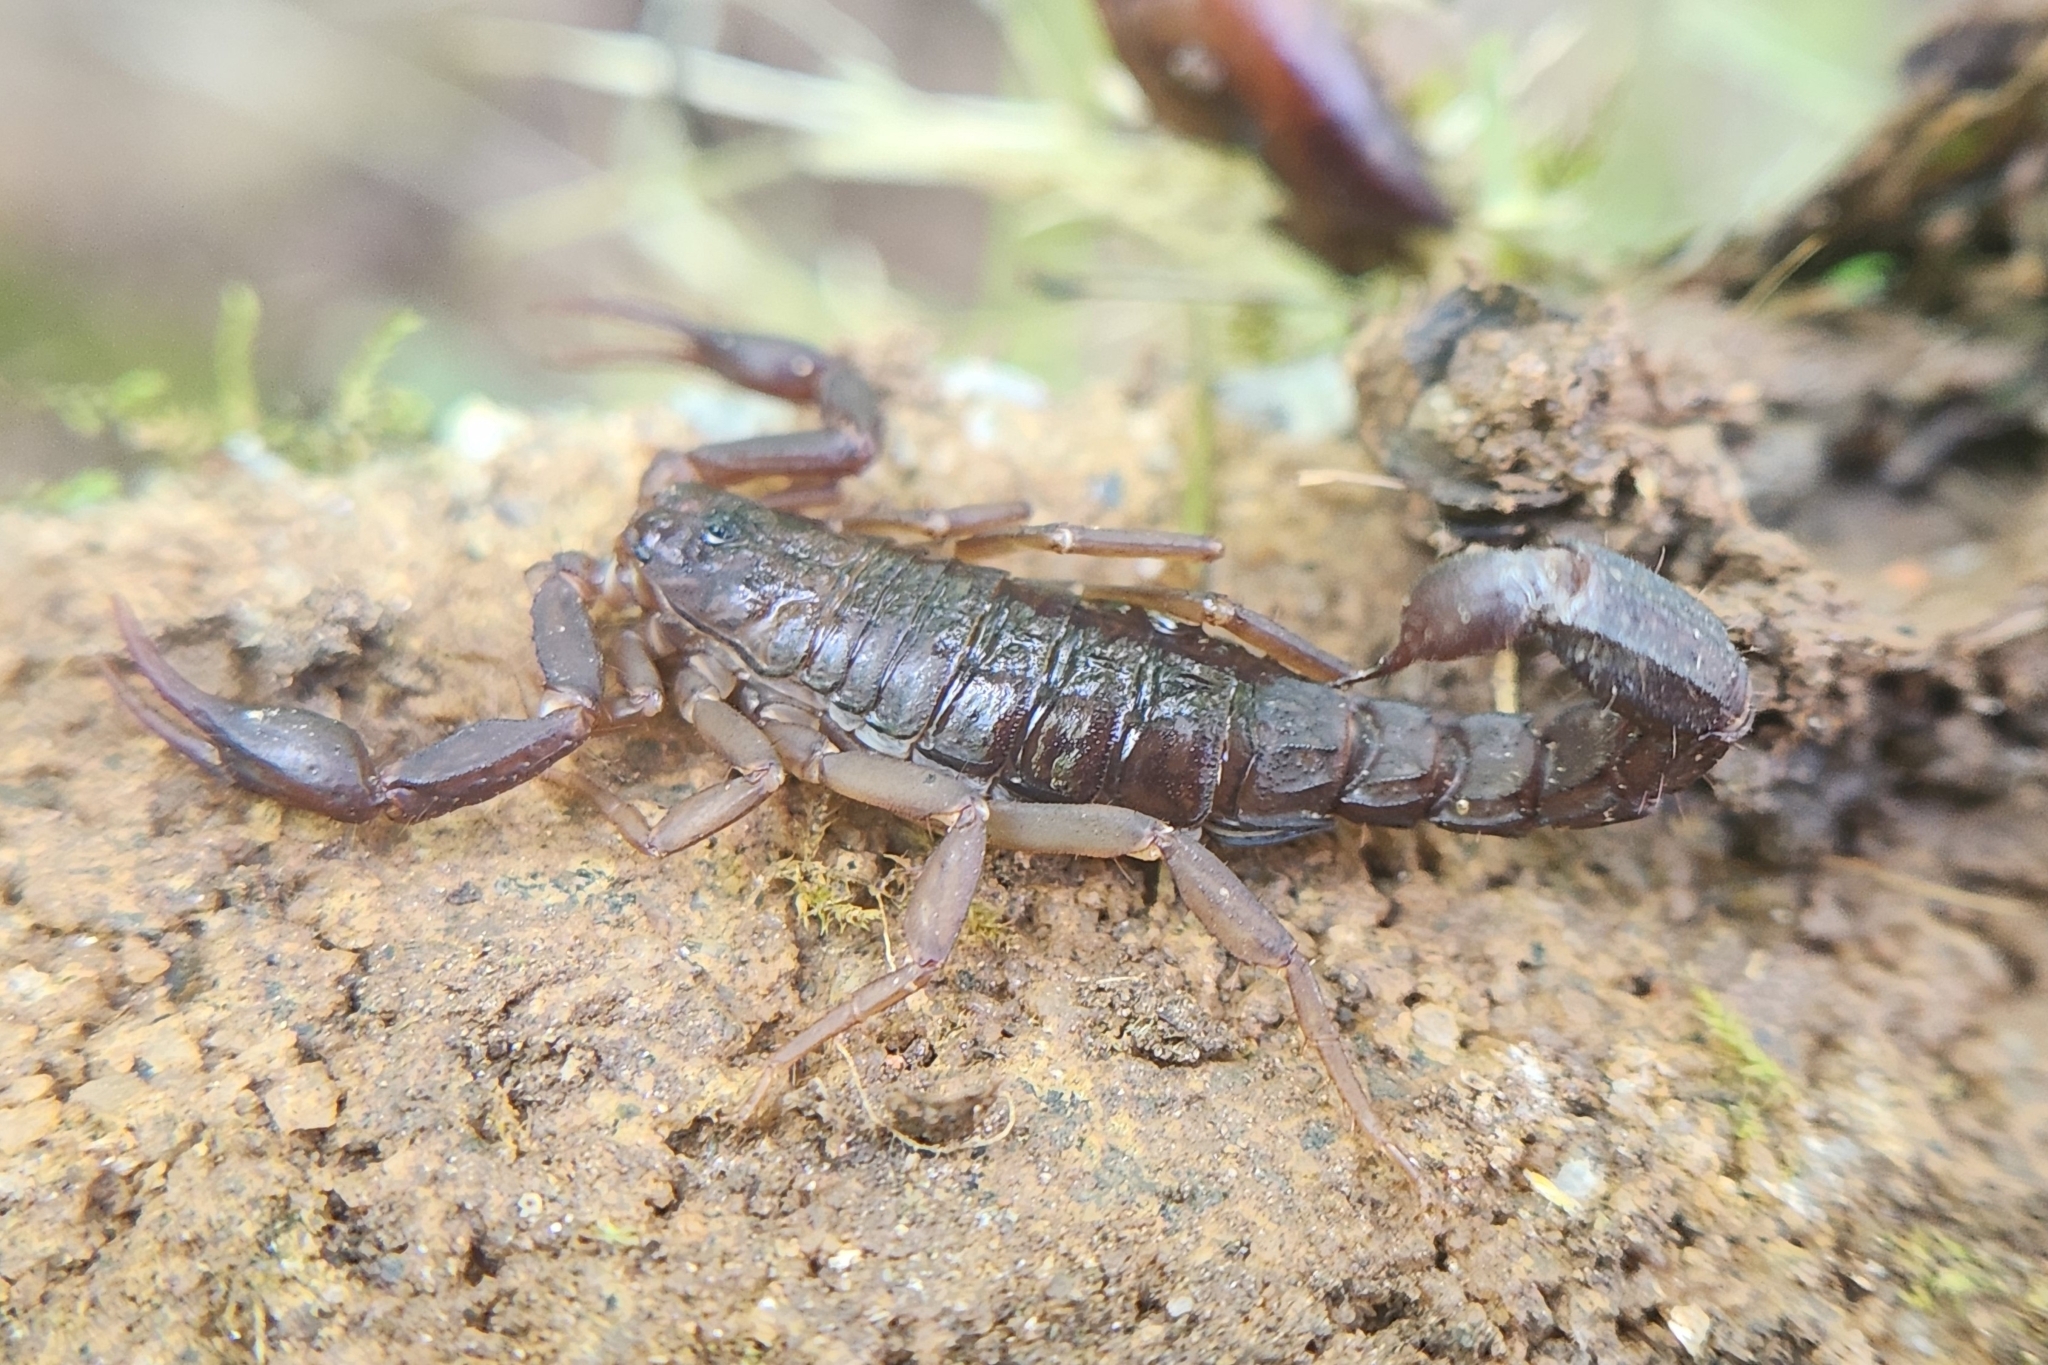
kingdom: Animalia
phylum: Arthropoda
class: Arachnida
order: Scorpiones
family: Vaejovidae
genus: Vaejovis
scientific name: Vaejovis carolinianus
